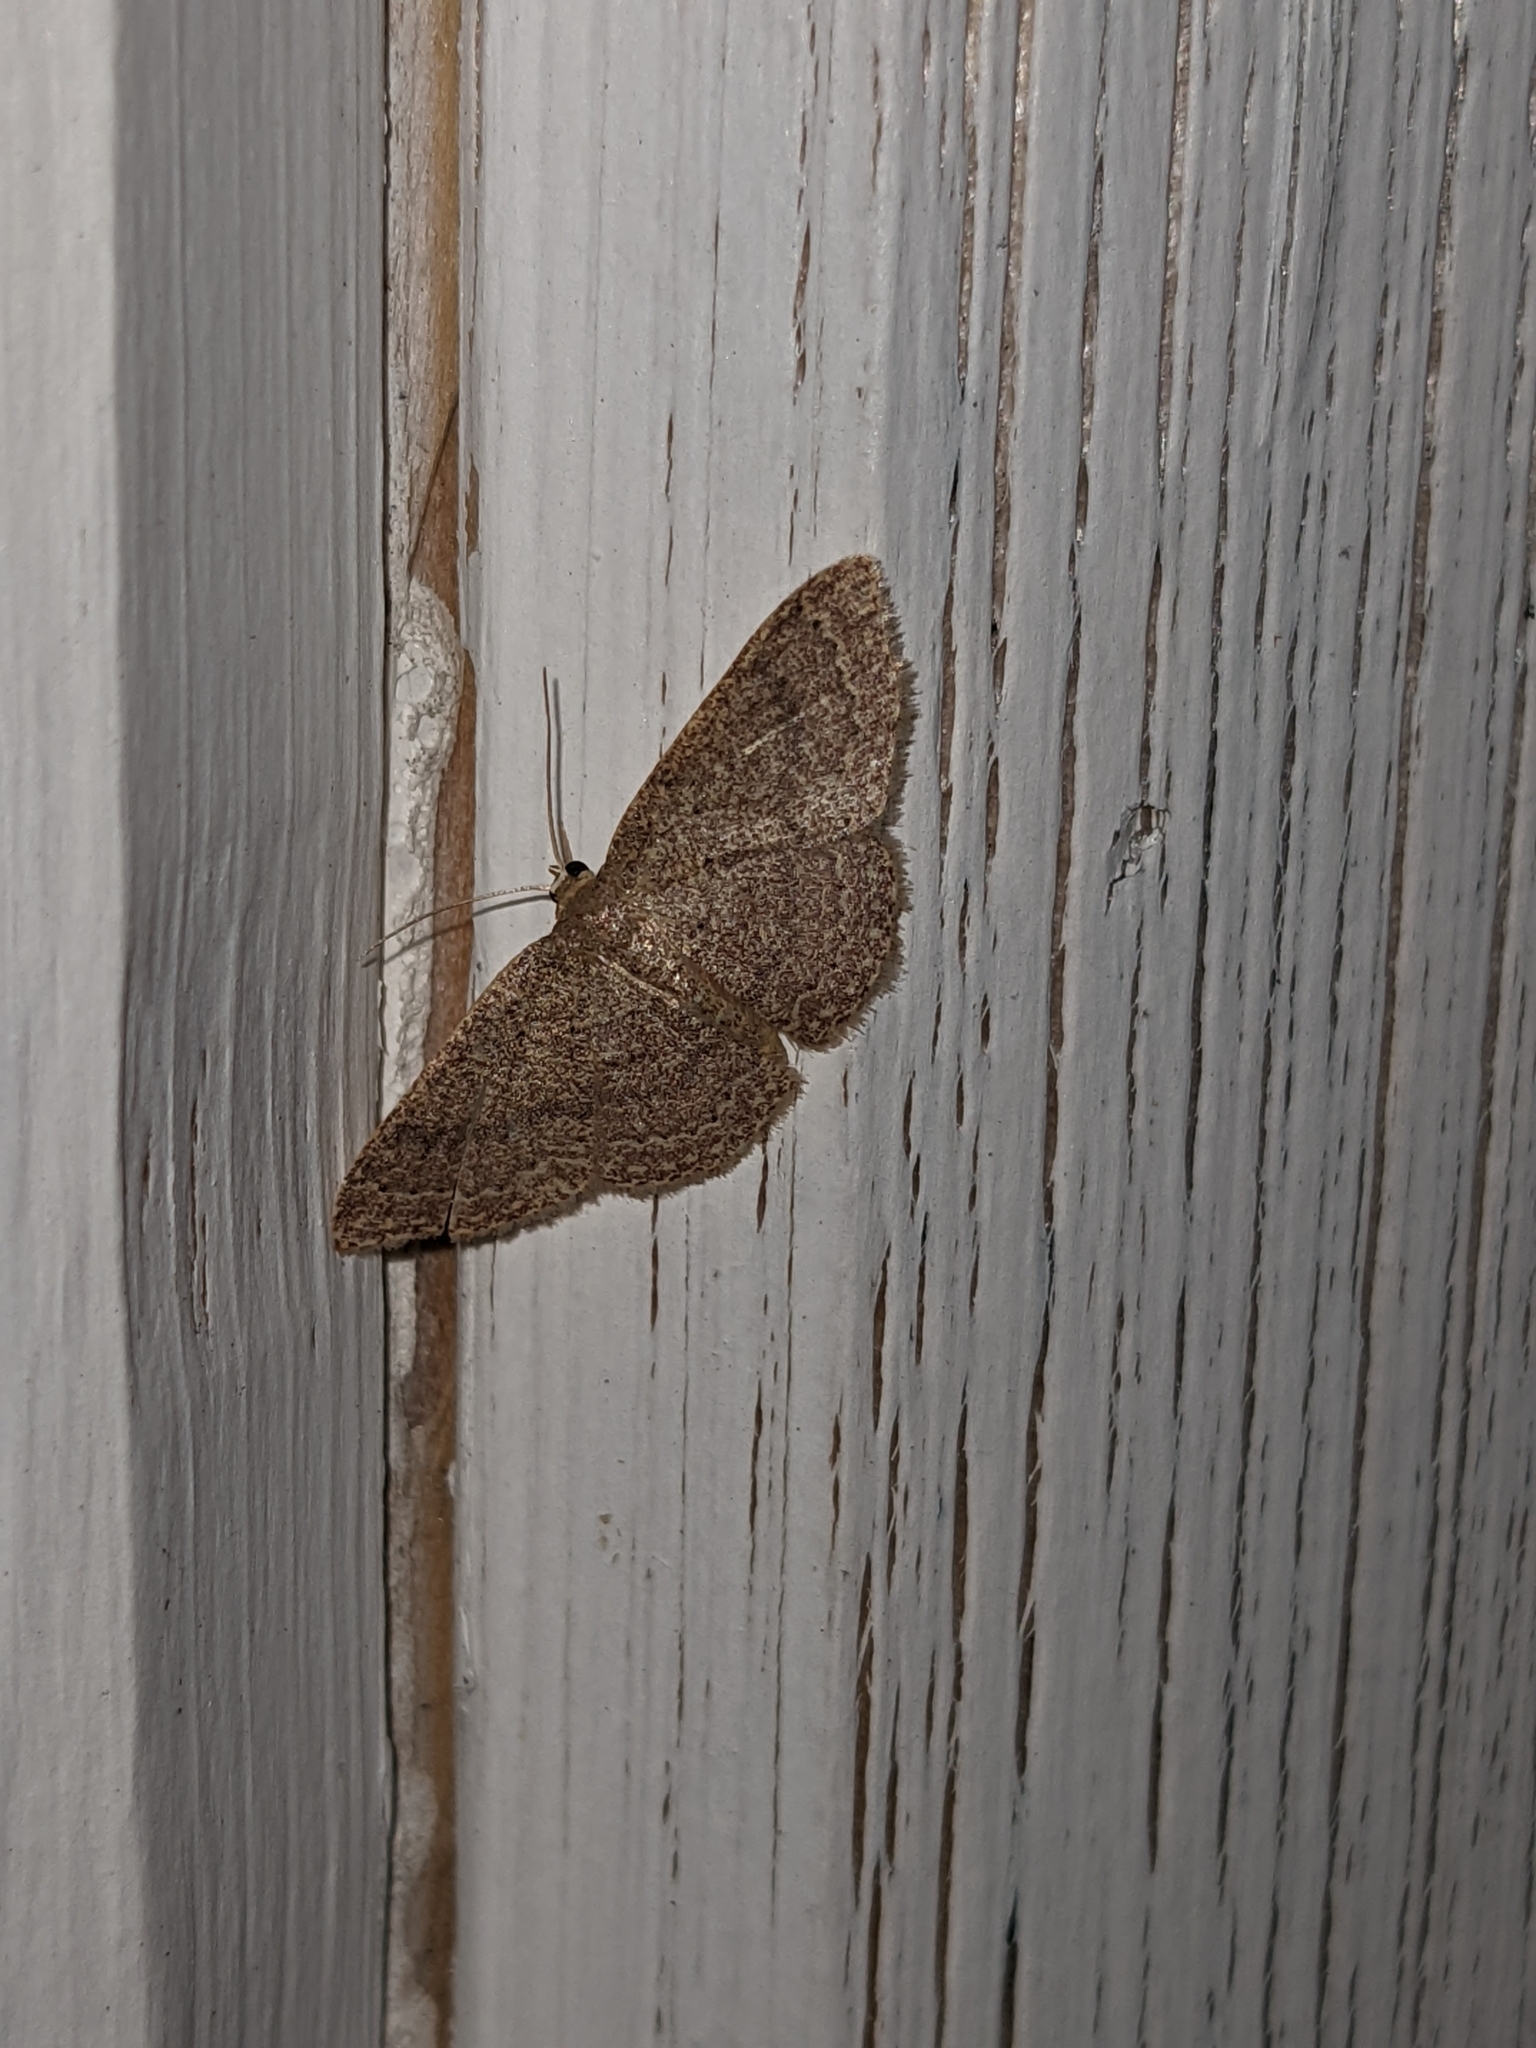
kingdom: Animalia
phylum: Arthropoda
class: Insecta
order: Lepidoptera
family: Geometridae
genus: Pleuroprucha
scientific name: Pleuroprucha insulsaria
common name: Common tan wave
